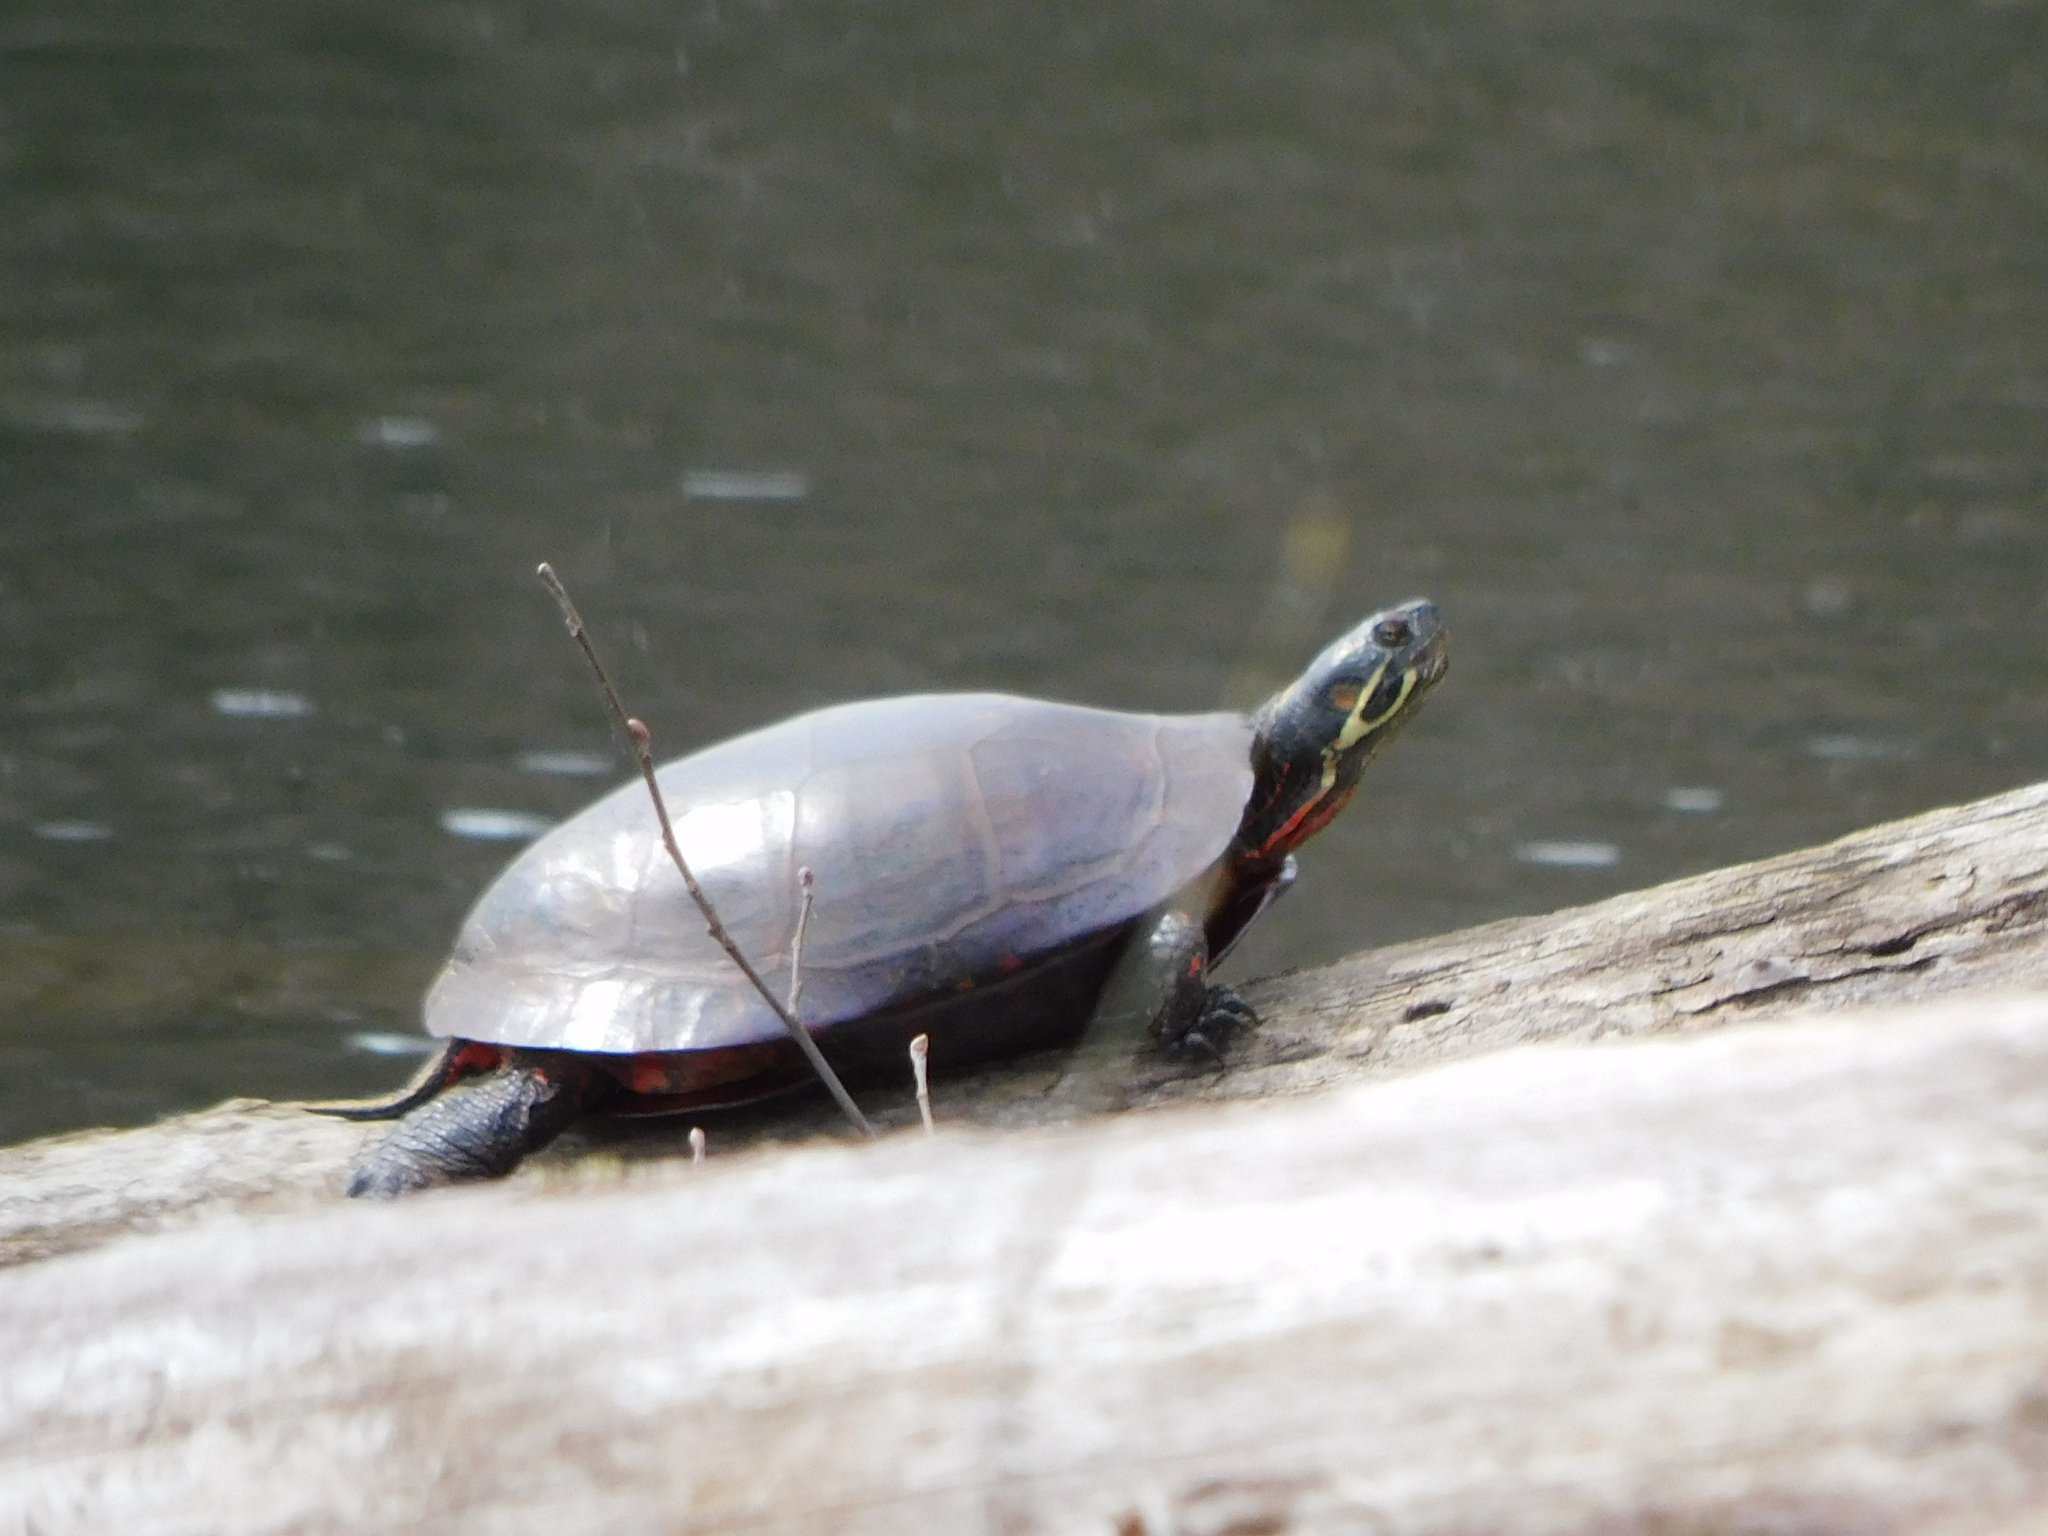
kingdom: Animalia
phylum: Chordata
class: Testudines
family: Emydidae
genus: Chrysemys
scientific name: Chrysemys picta
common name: Painted turtle
